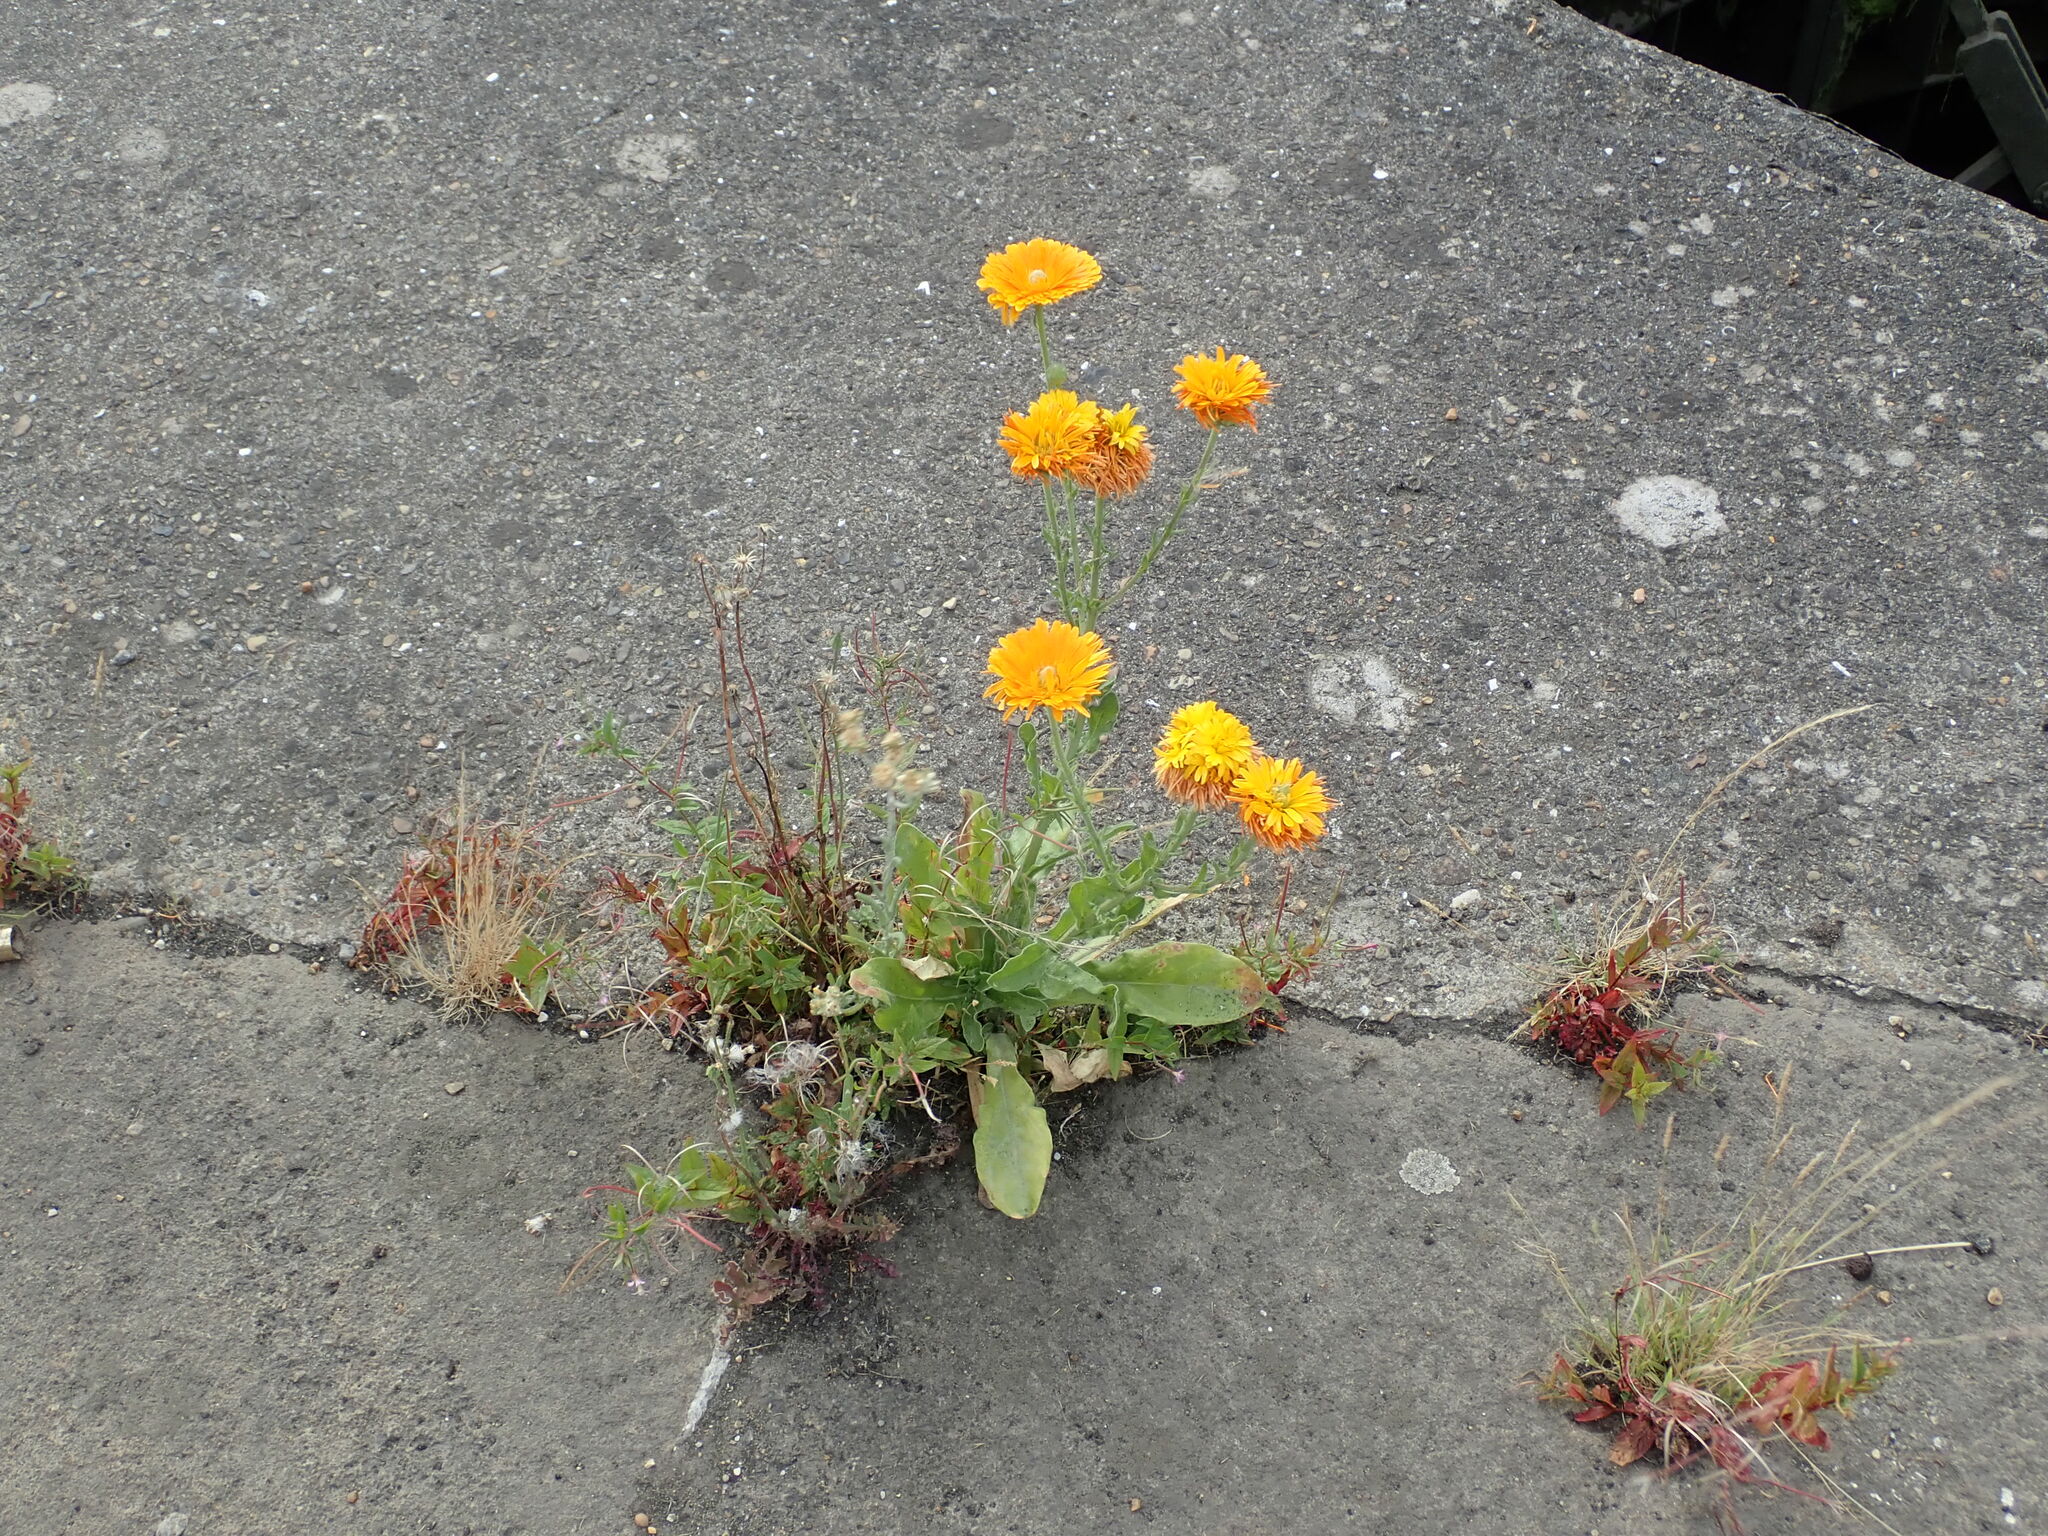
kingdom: Plantae
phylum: Tracheophyta
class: Magnoliopsida
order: Asterales
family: Asteraceae
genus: Calendula
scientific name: Calendula officinalis
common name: Pot marigold
